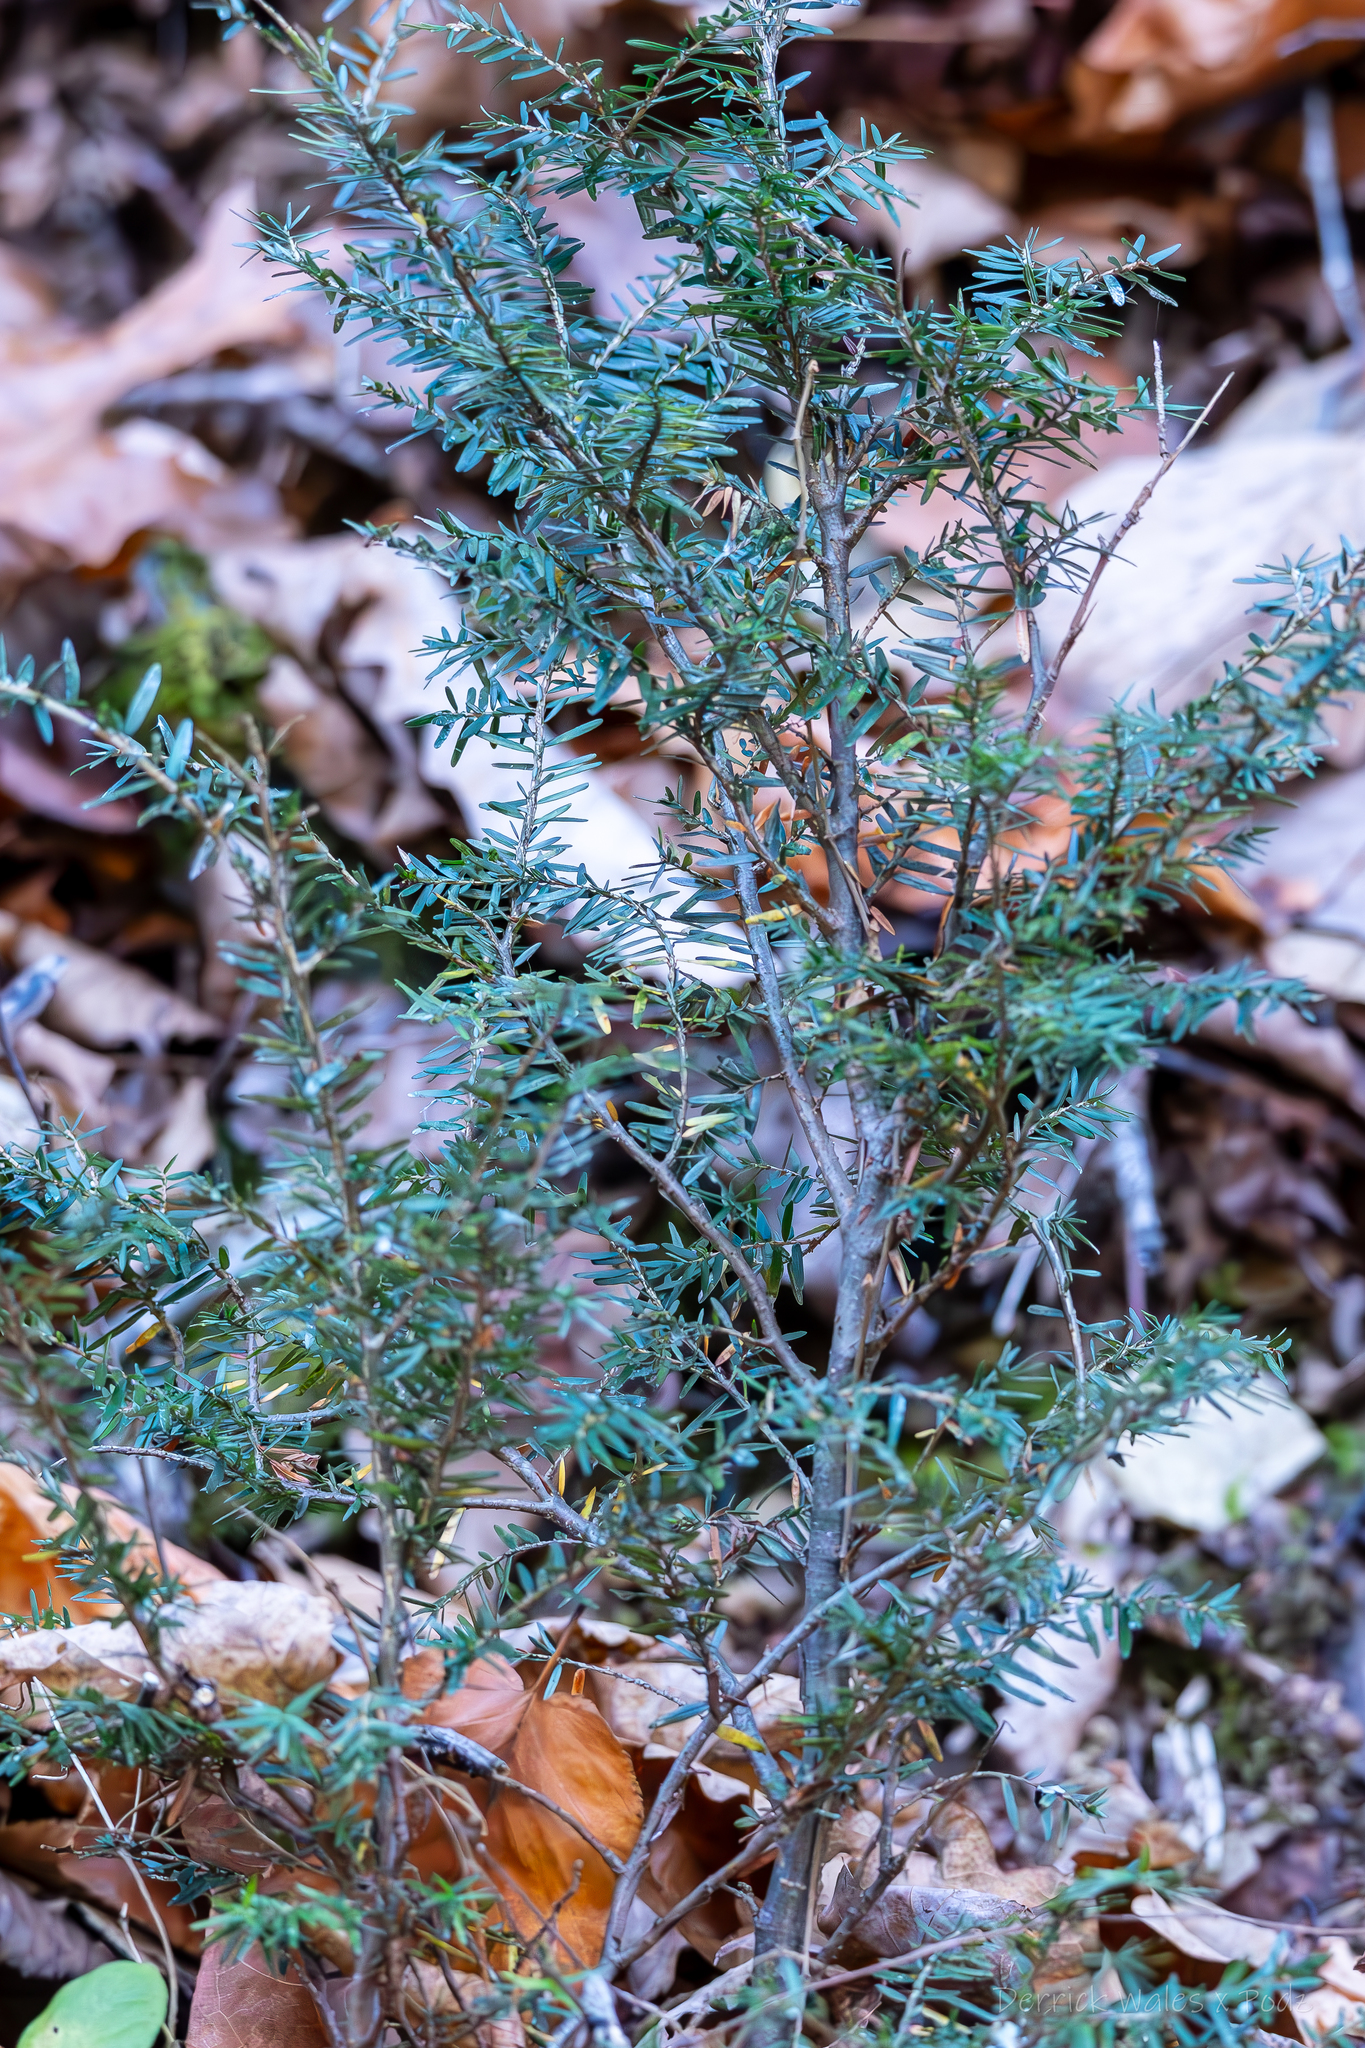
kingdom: Plantae
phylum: Tracheophyta
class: Pinopsida
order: Pinales
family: Pinaceae
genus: Tsuga
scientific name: Tsuga canadensis
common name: Eastern hemlock
